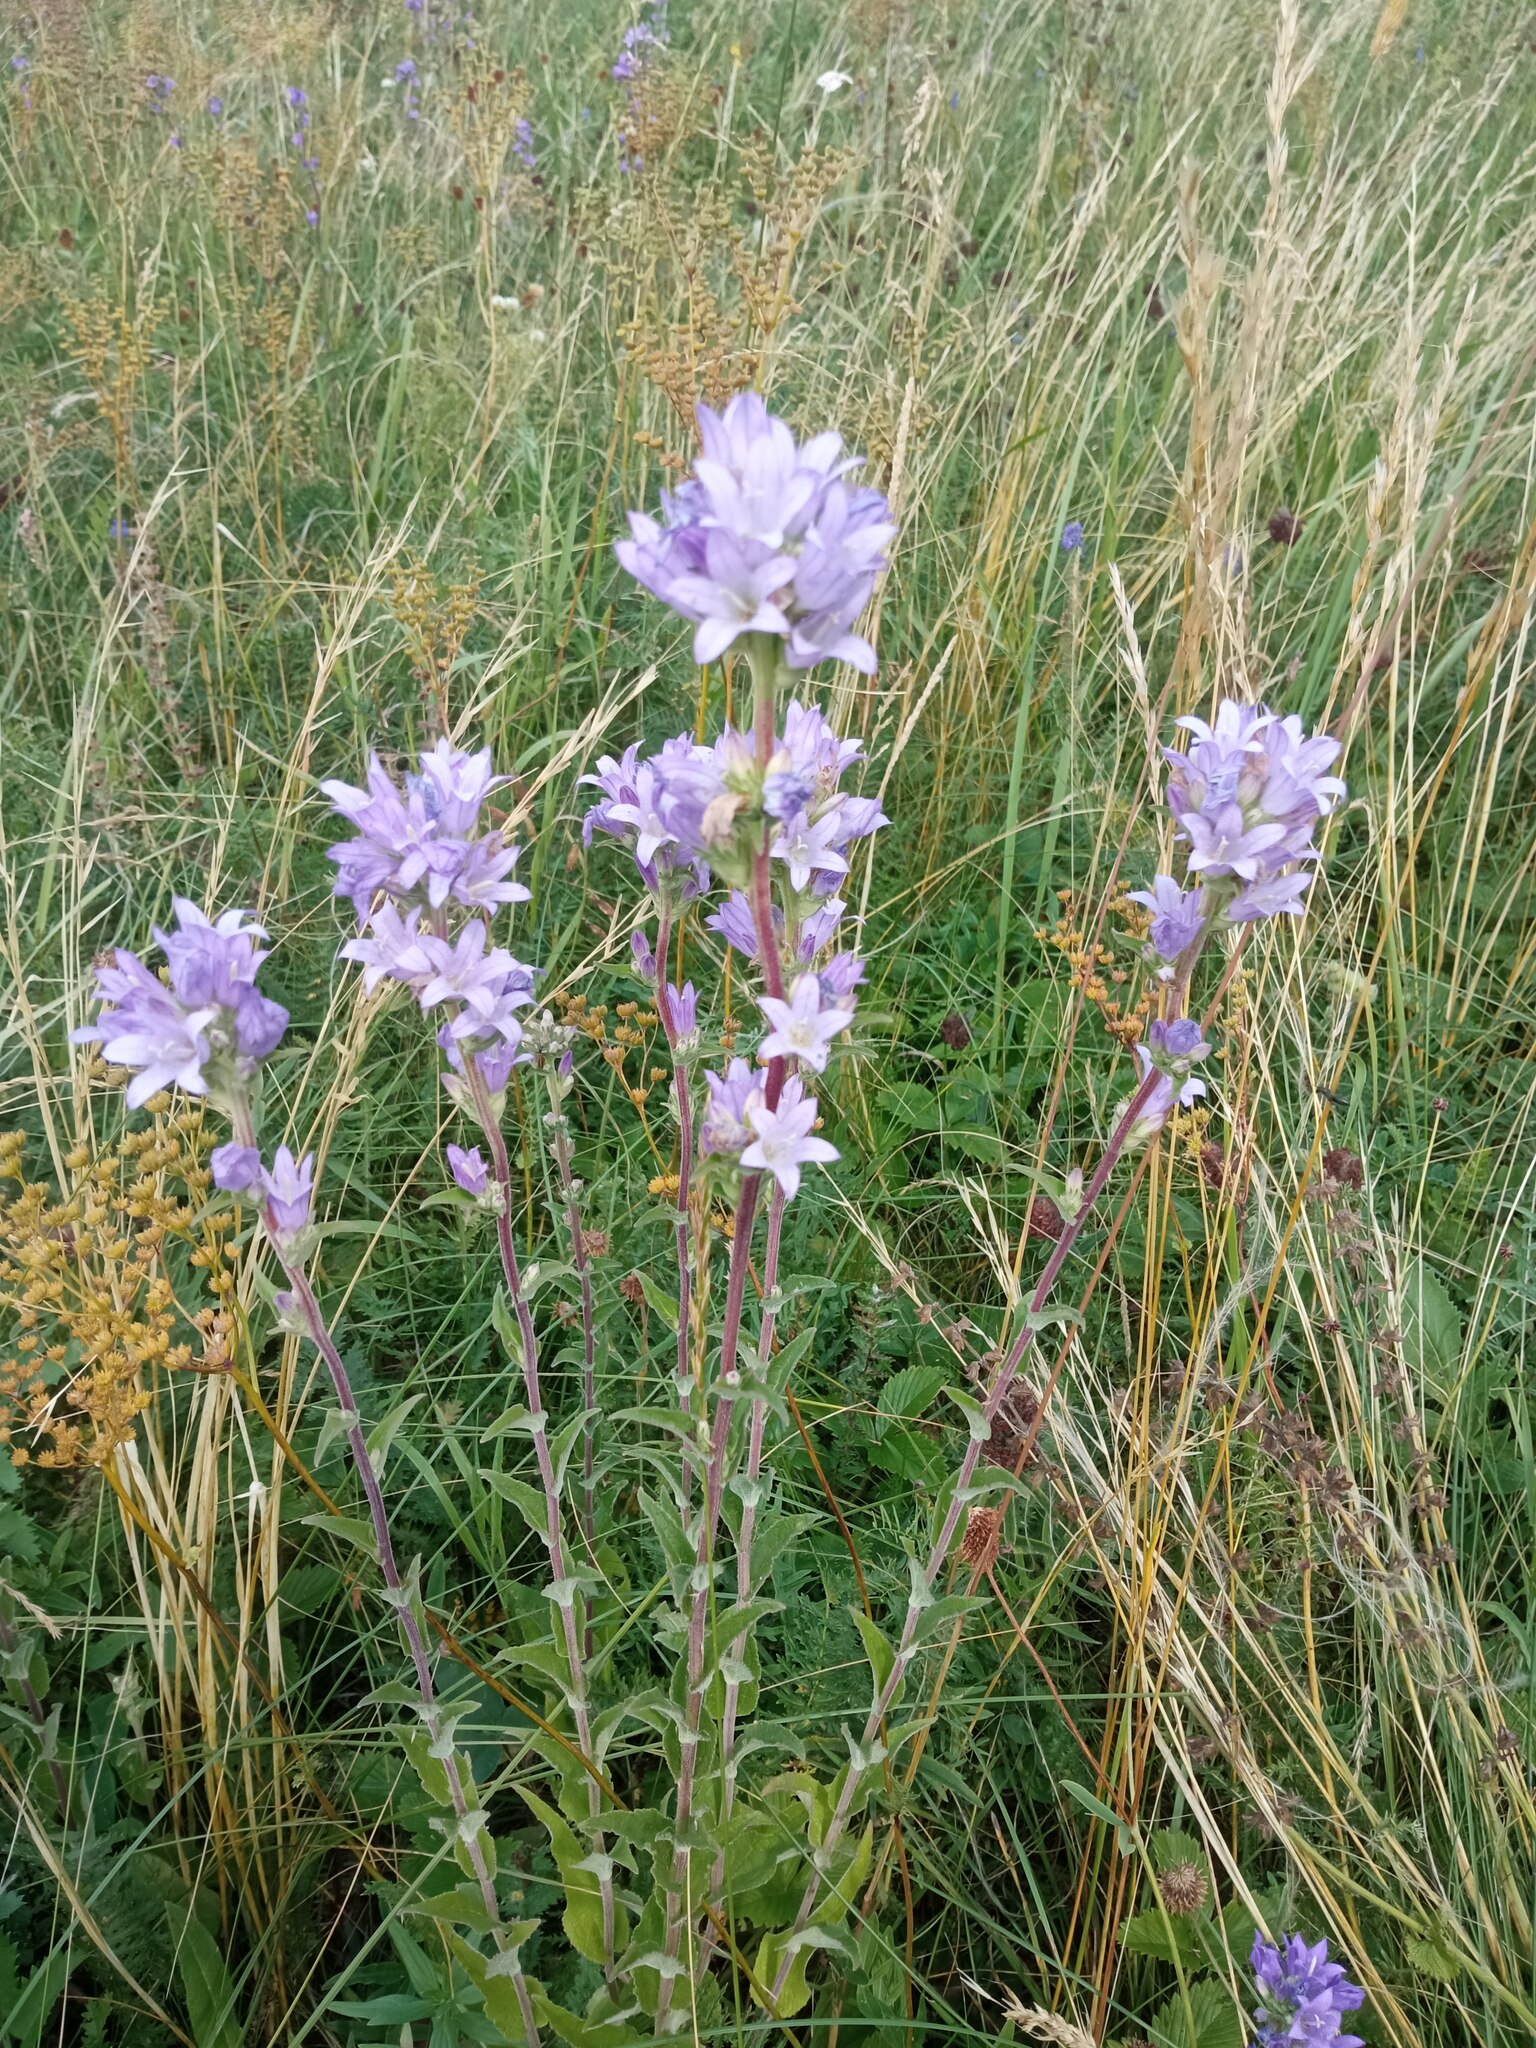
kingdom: Plantae
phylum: Tracheophyta
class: Magnoliopsida
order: Asterales
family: Campanulaceae
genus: Campanula
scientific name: Campanula glomerata
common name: Clustered bellflower
